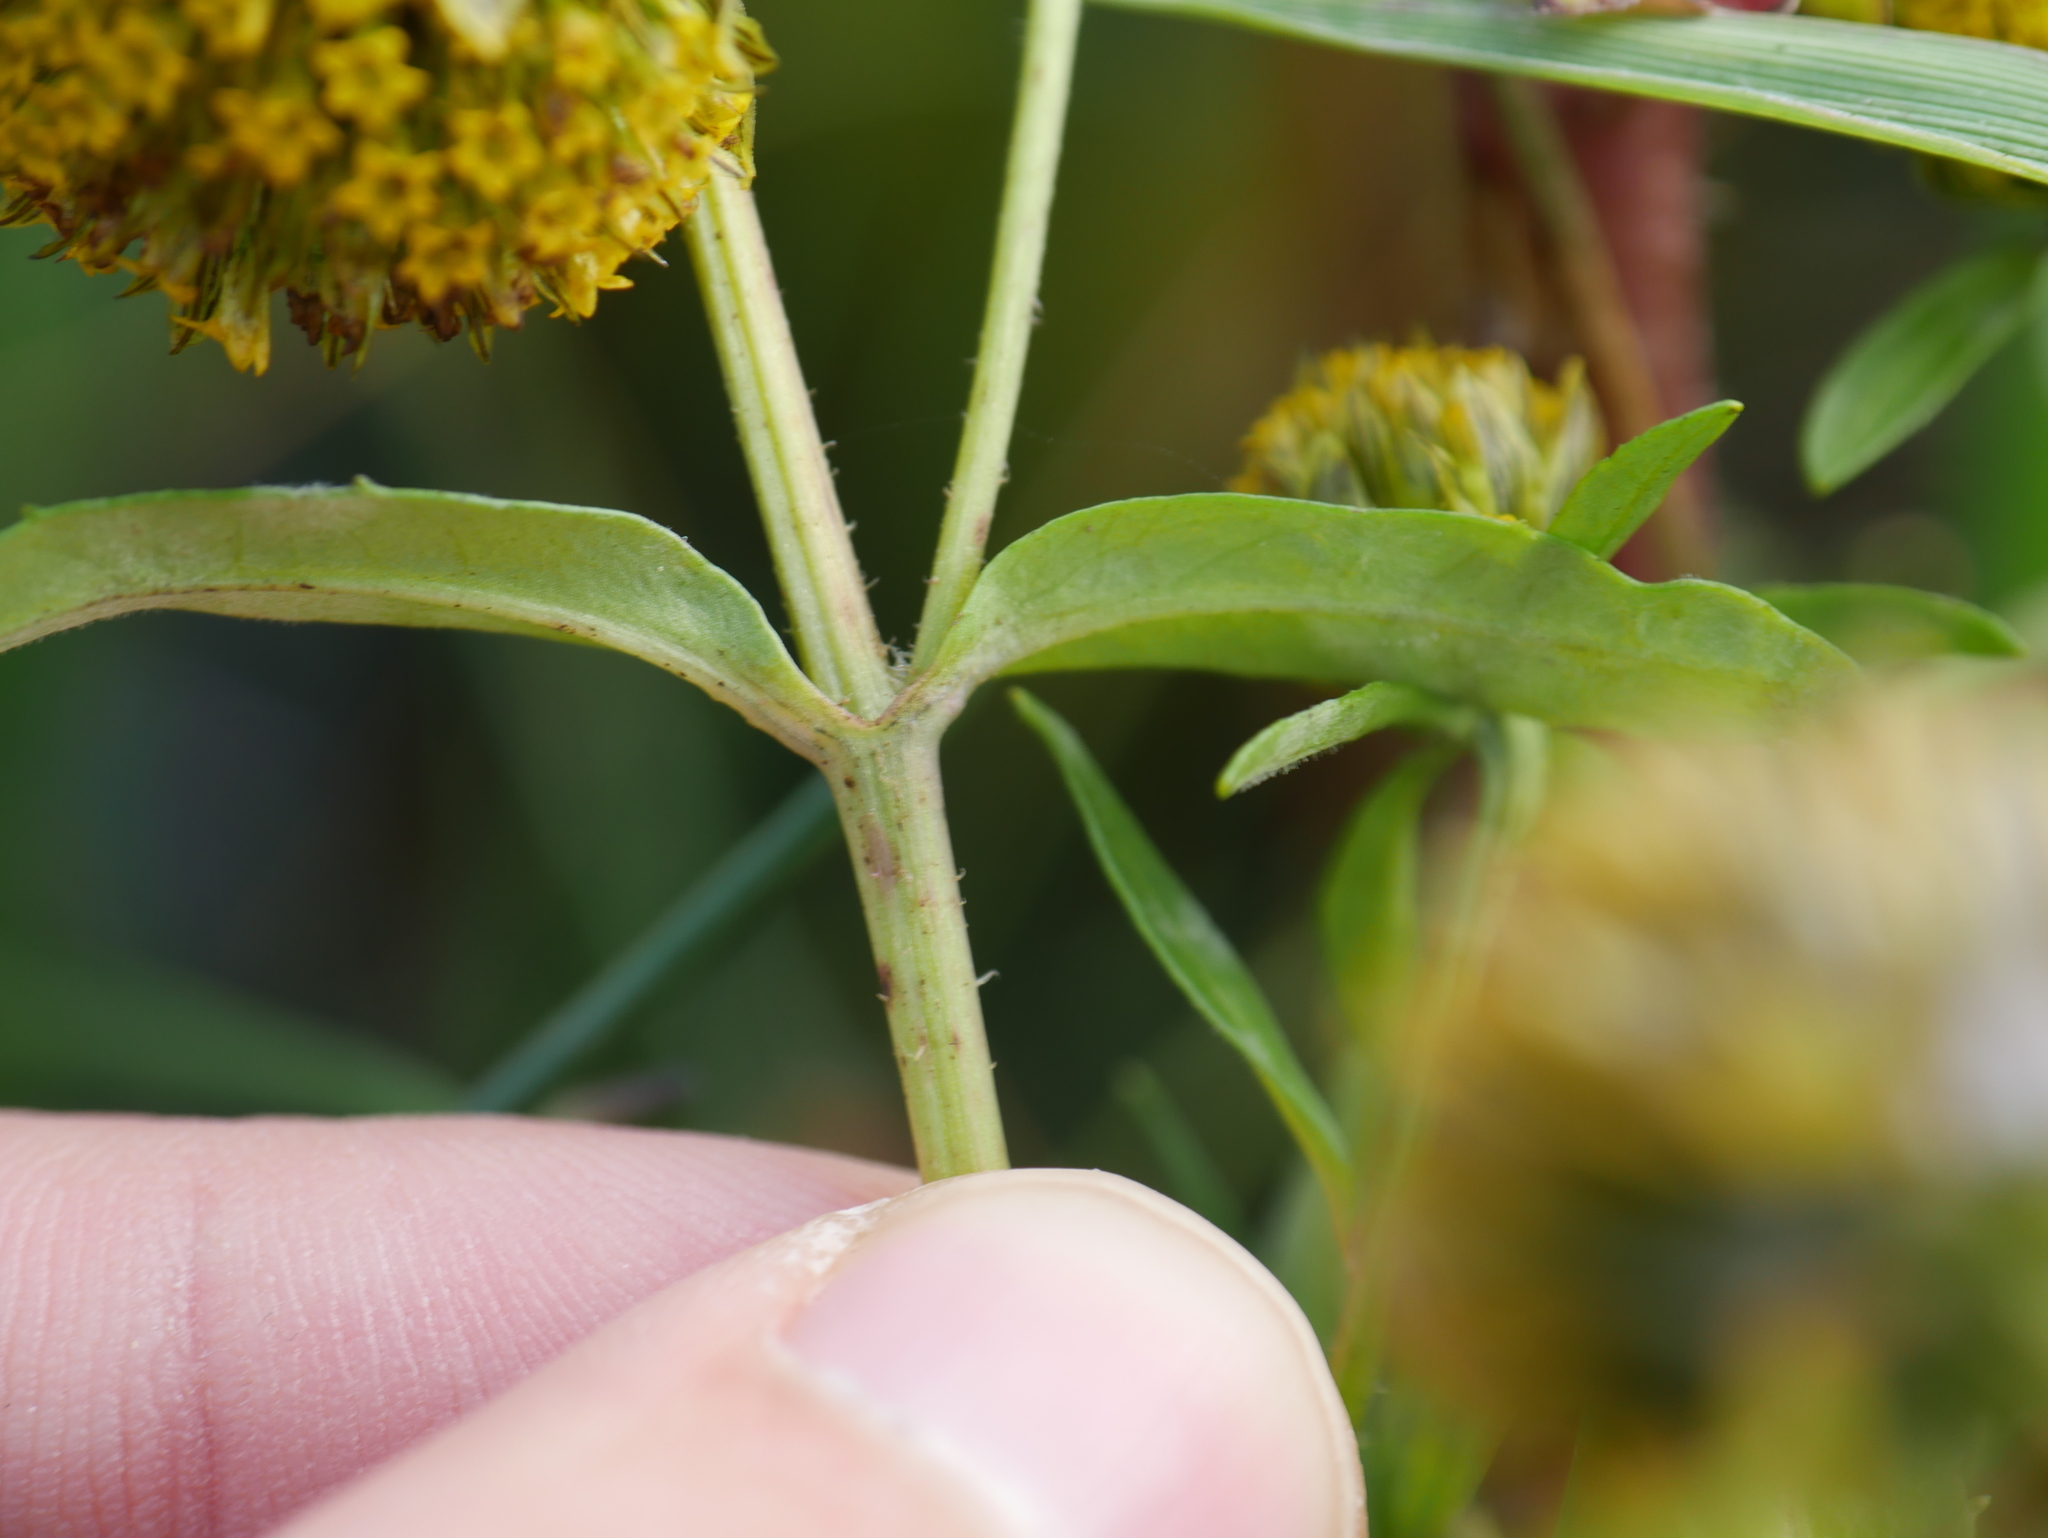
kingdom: Plantae
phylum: Tracheophyta
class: Magnoliopsida
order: Asterales
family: Asteraceae
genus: Bidens
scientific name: Bidens cernua
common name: Nodding bur-marigold
